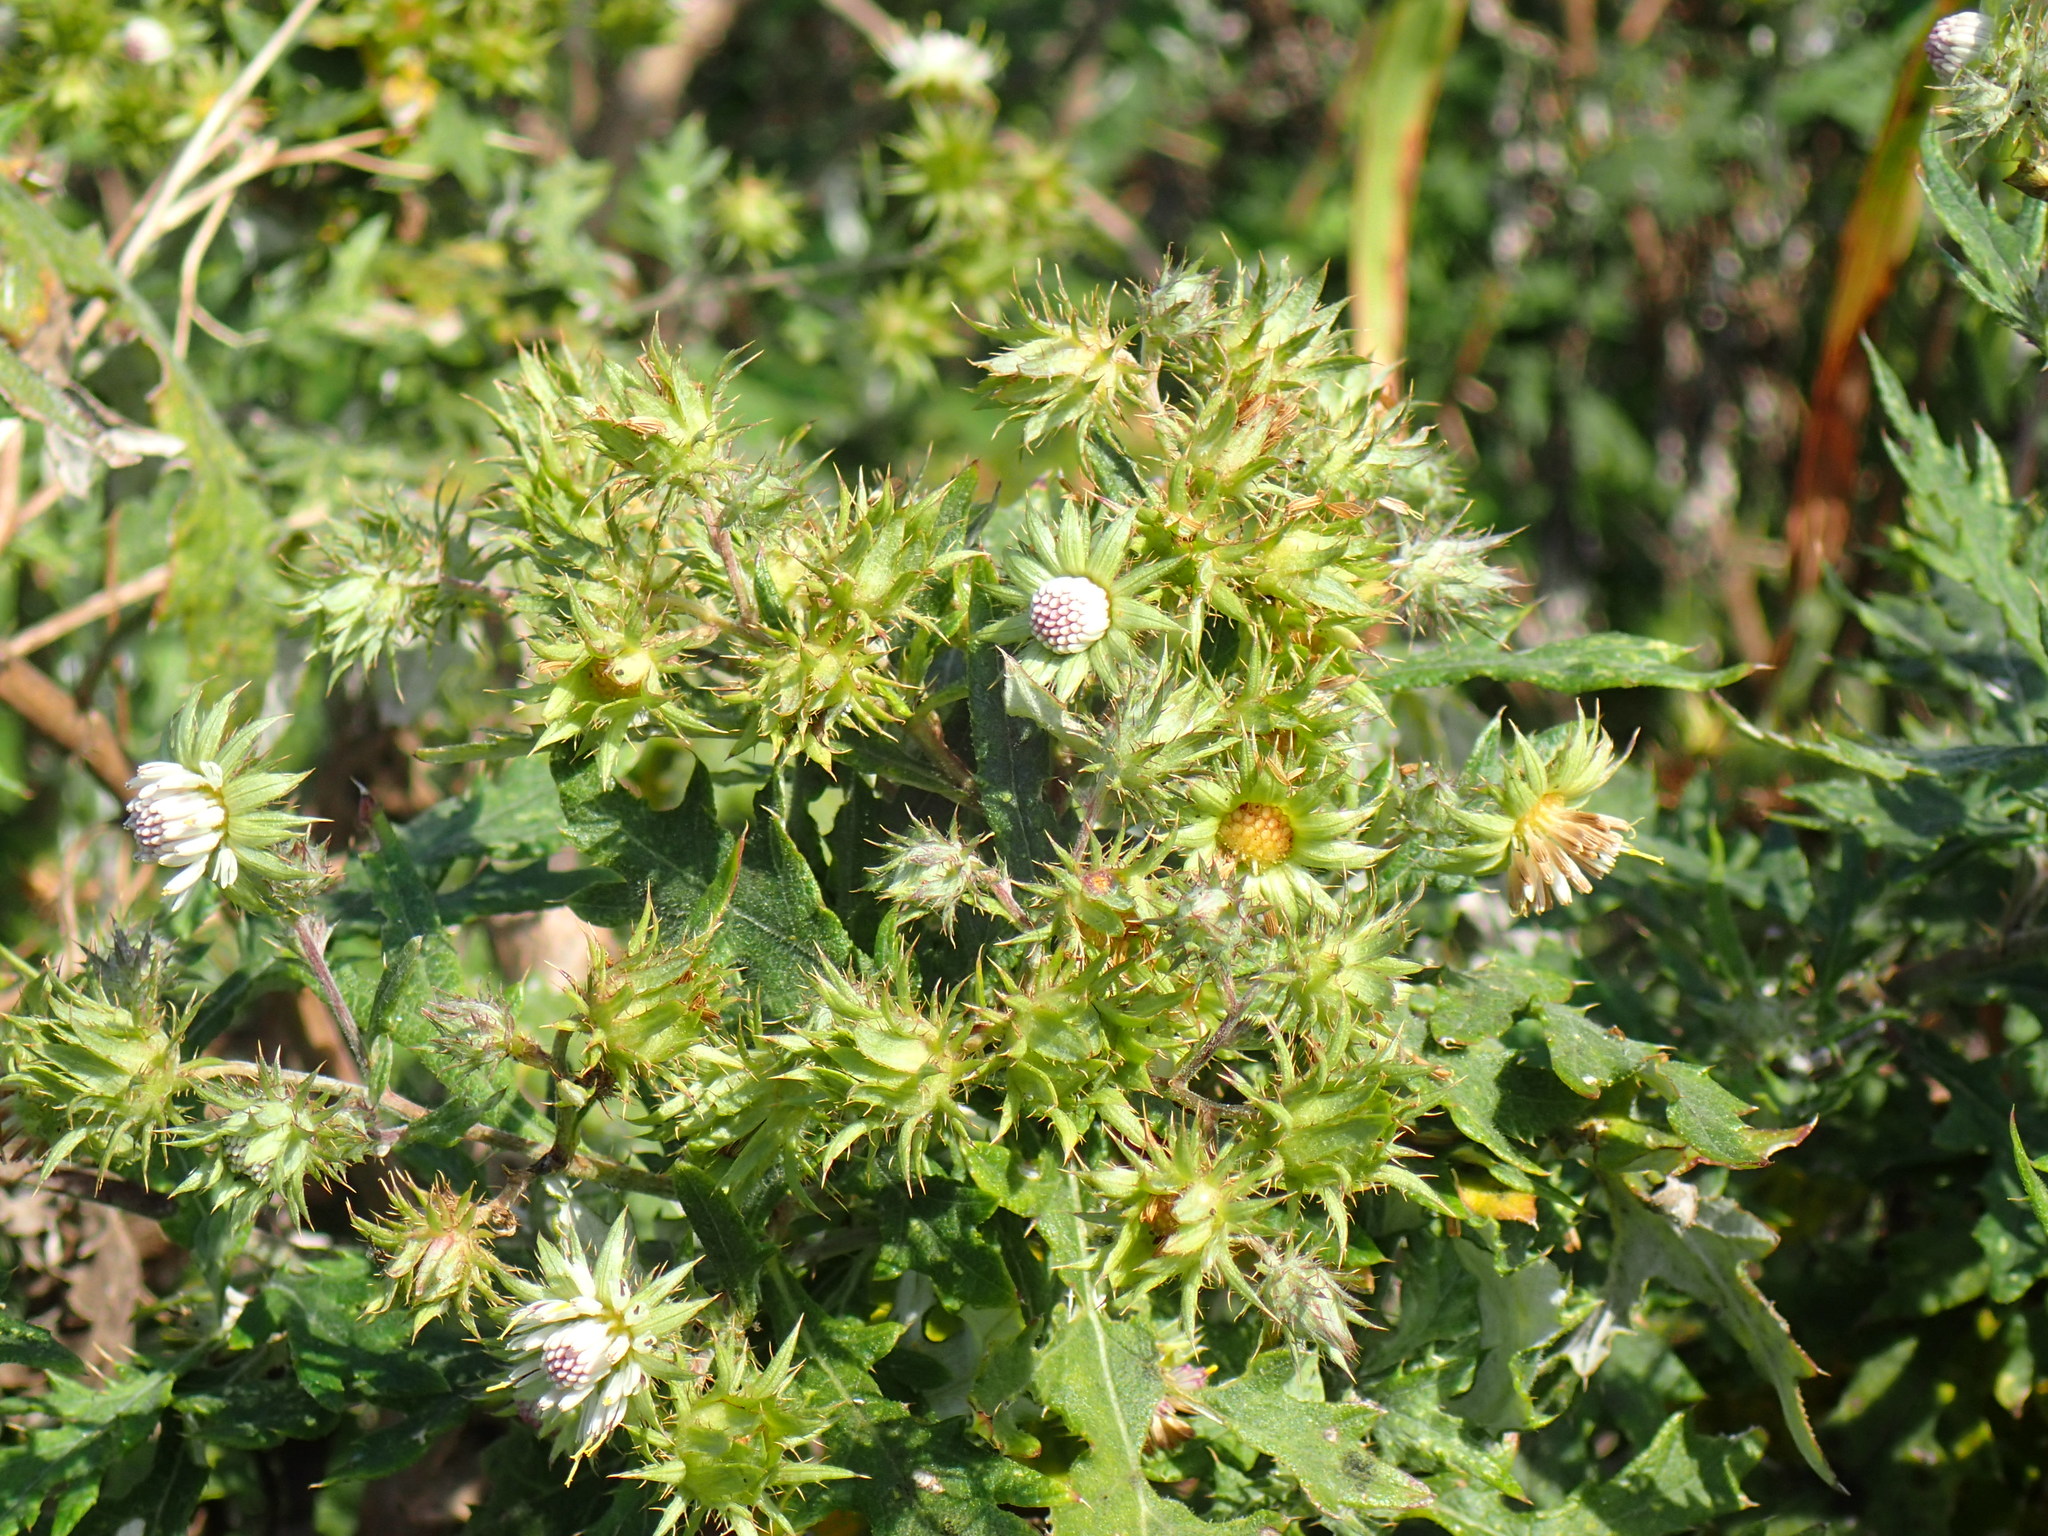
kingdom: Plantae
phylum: Tracheophyta
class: Magnoliopsida
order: Asterales
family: Asteraceae
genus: Berkheya
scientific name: Berkheya bipinnatifida
